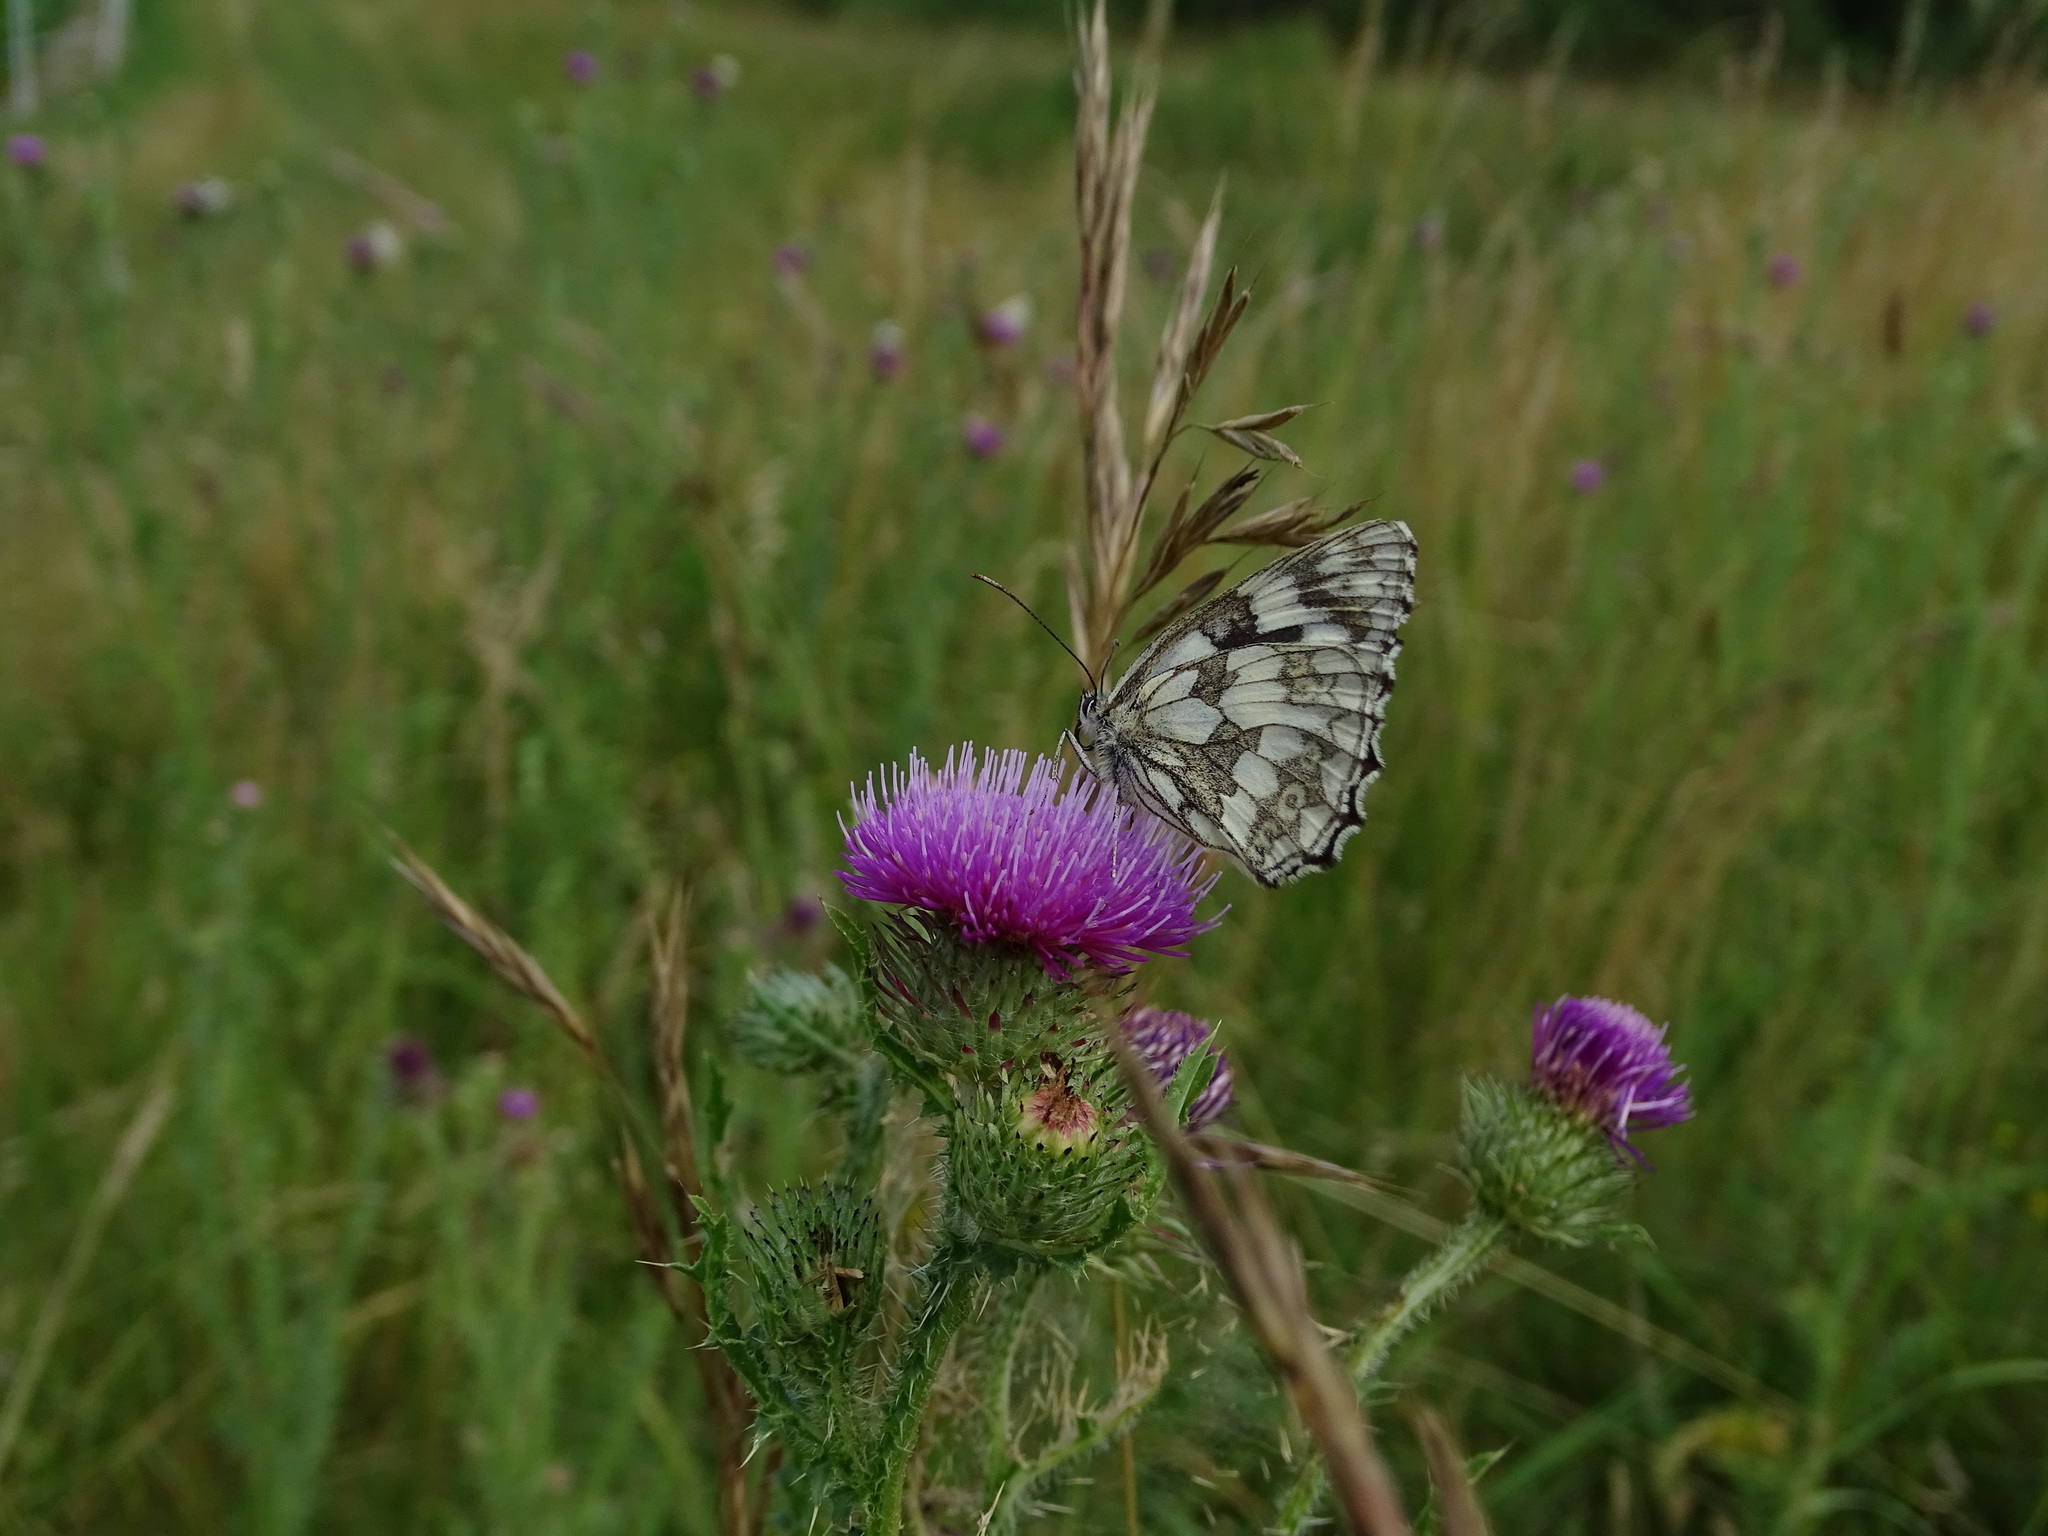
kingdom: Animalia
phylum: Arthropoda
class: Insecta
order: Lepidoptera
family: Nymphalidae
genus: Melanargia
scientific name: Melanargia galathea
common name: Marbled white
